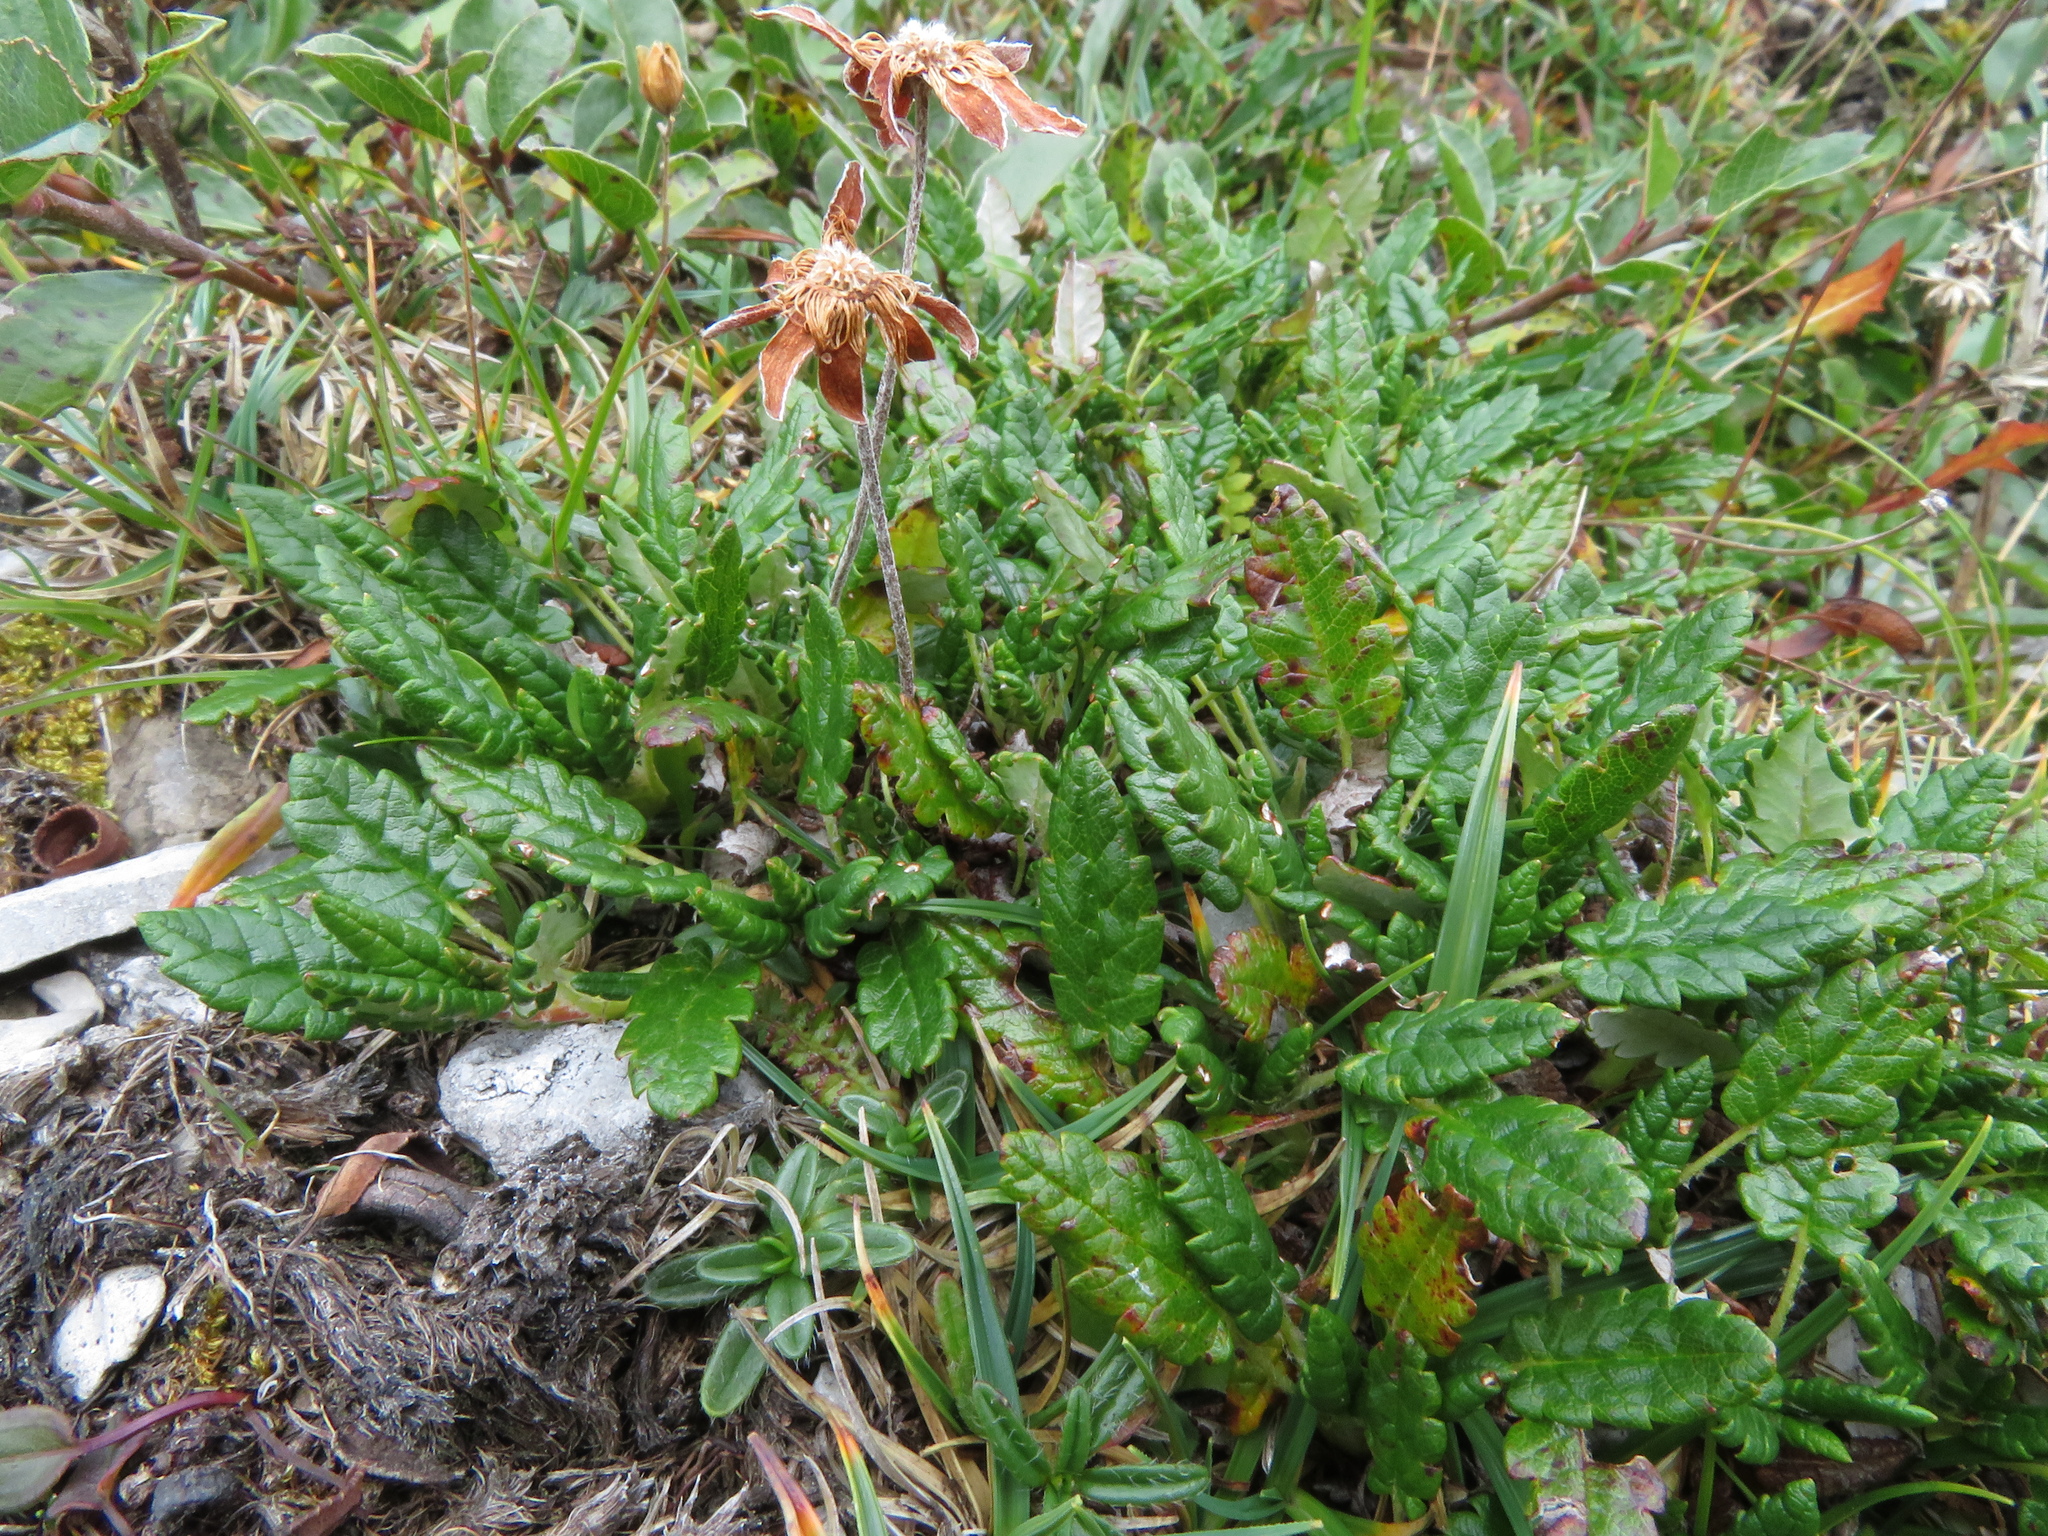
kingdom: Plantae
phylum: Tracheophyta
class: Magnoliopsida
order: Rosales
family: Rosaceae
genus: Dryas
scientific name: Dryas octopetala
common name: Eight-petal mountain-avens
